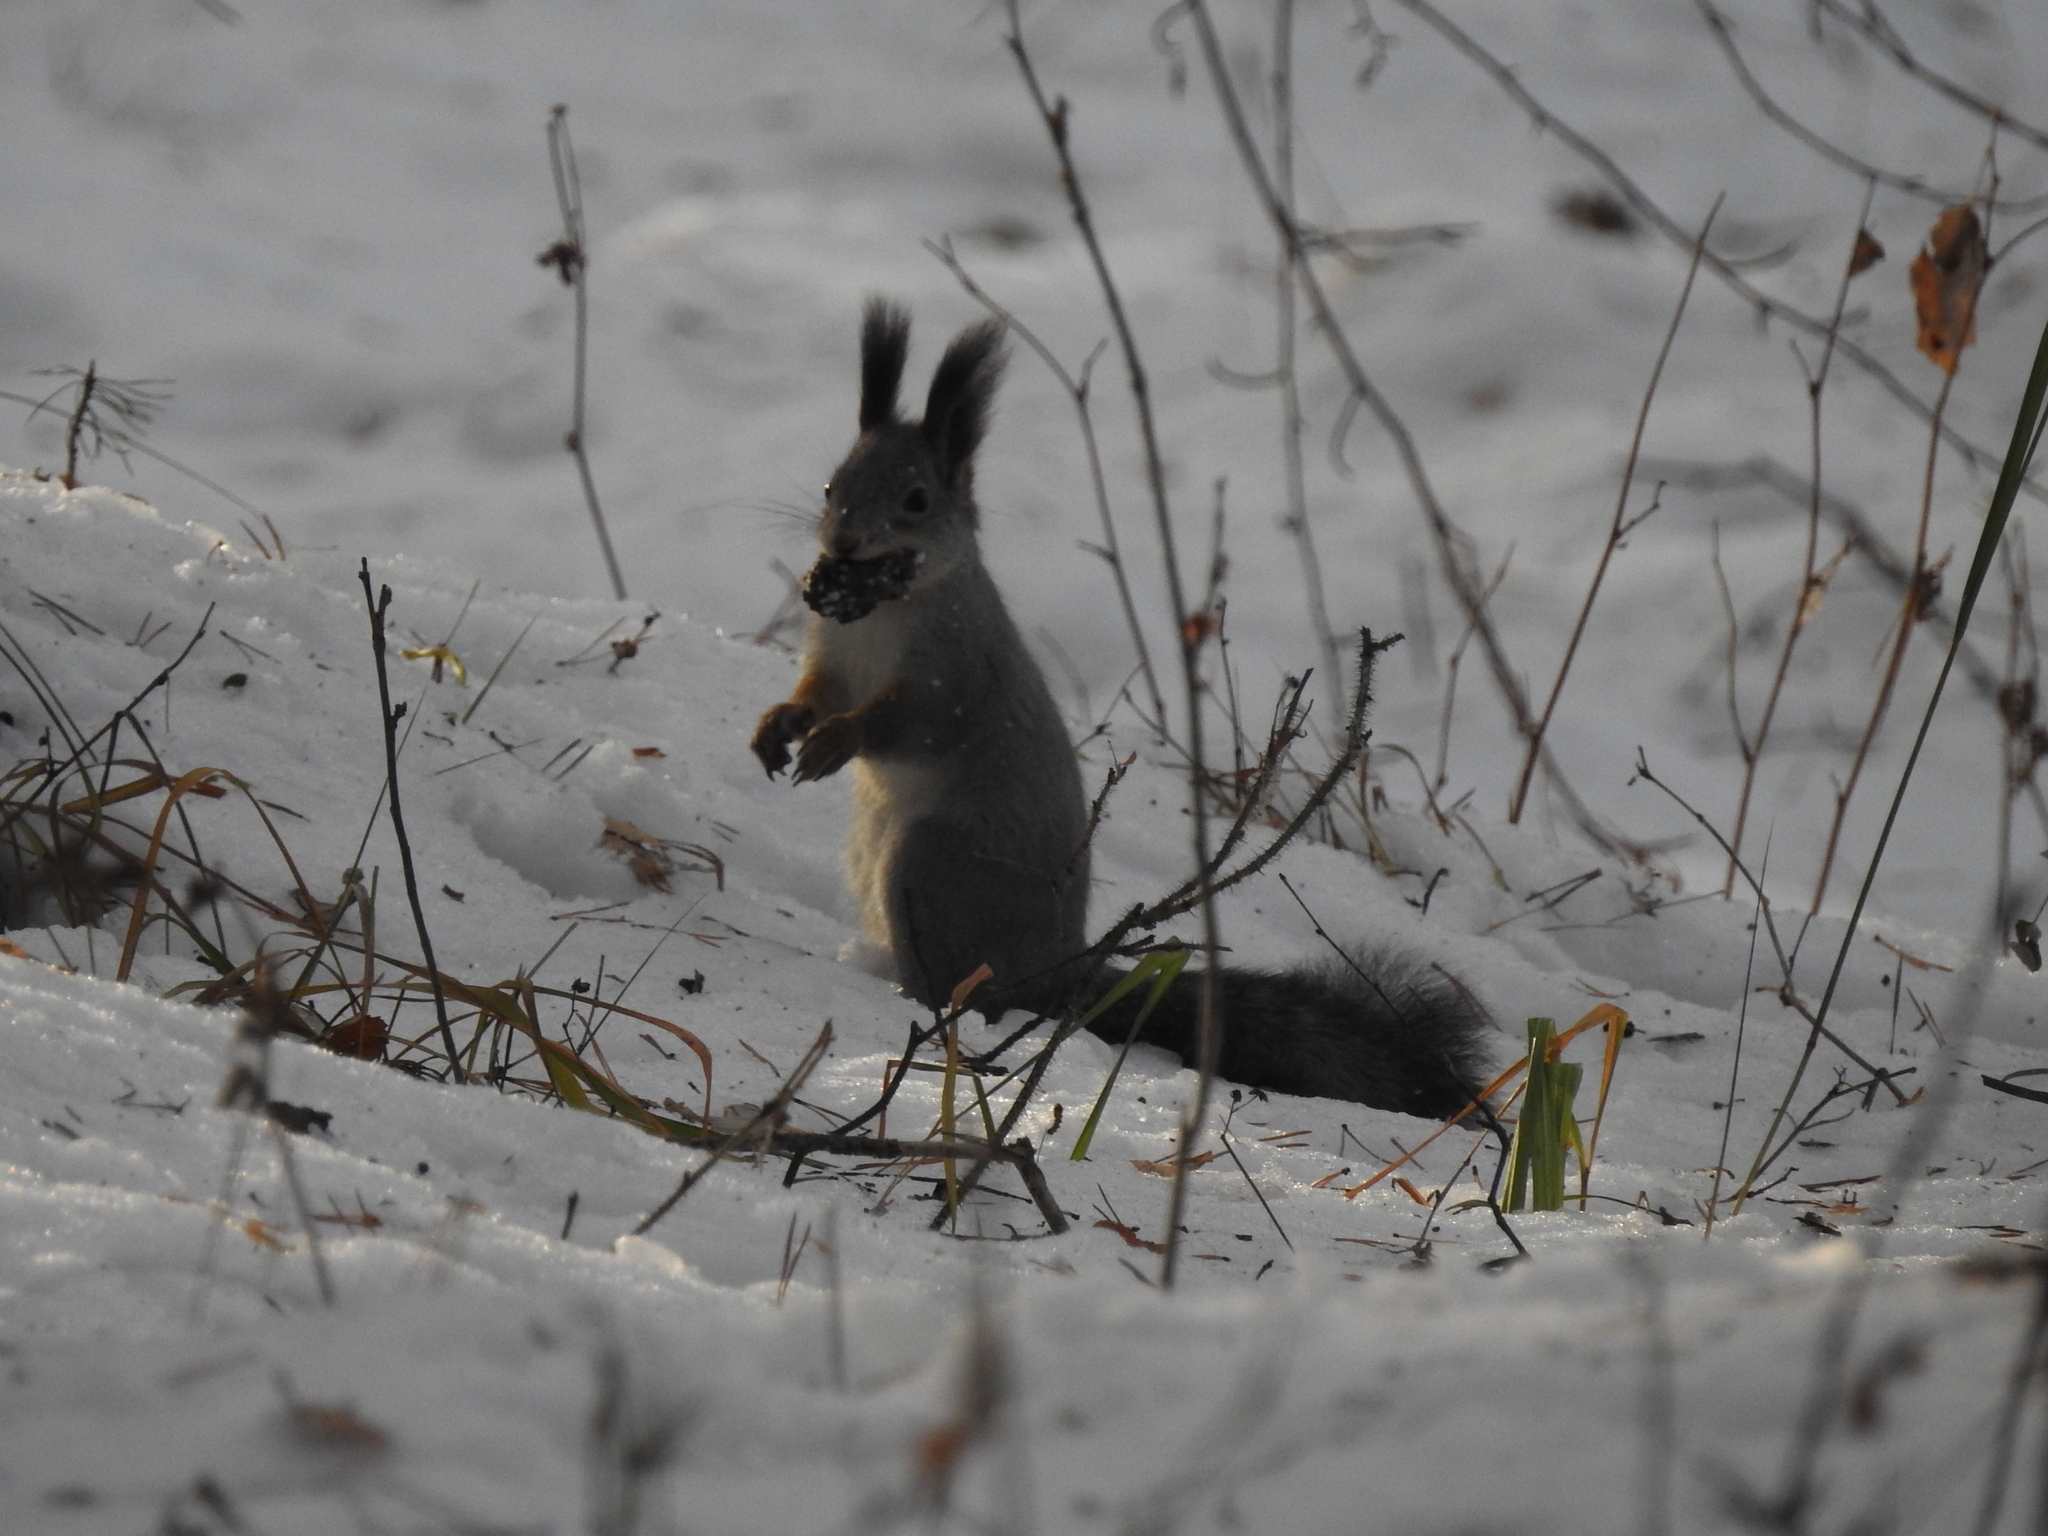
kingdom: Animalia
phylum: Chordata
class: Mammalia
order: Rodentia
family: Sciuridae
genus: Sciurus
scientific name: Sciurus vulgaris
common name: Eurasian red squirrel
